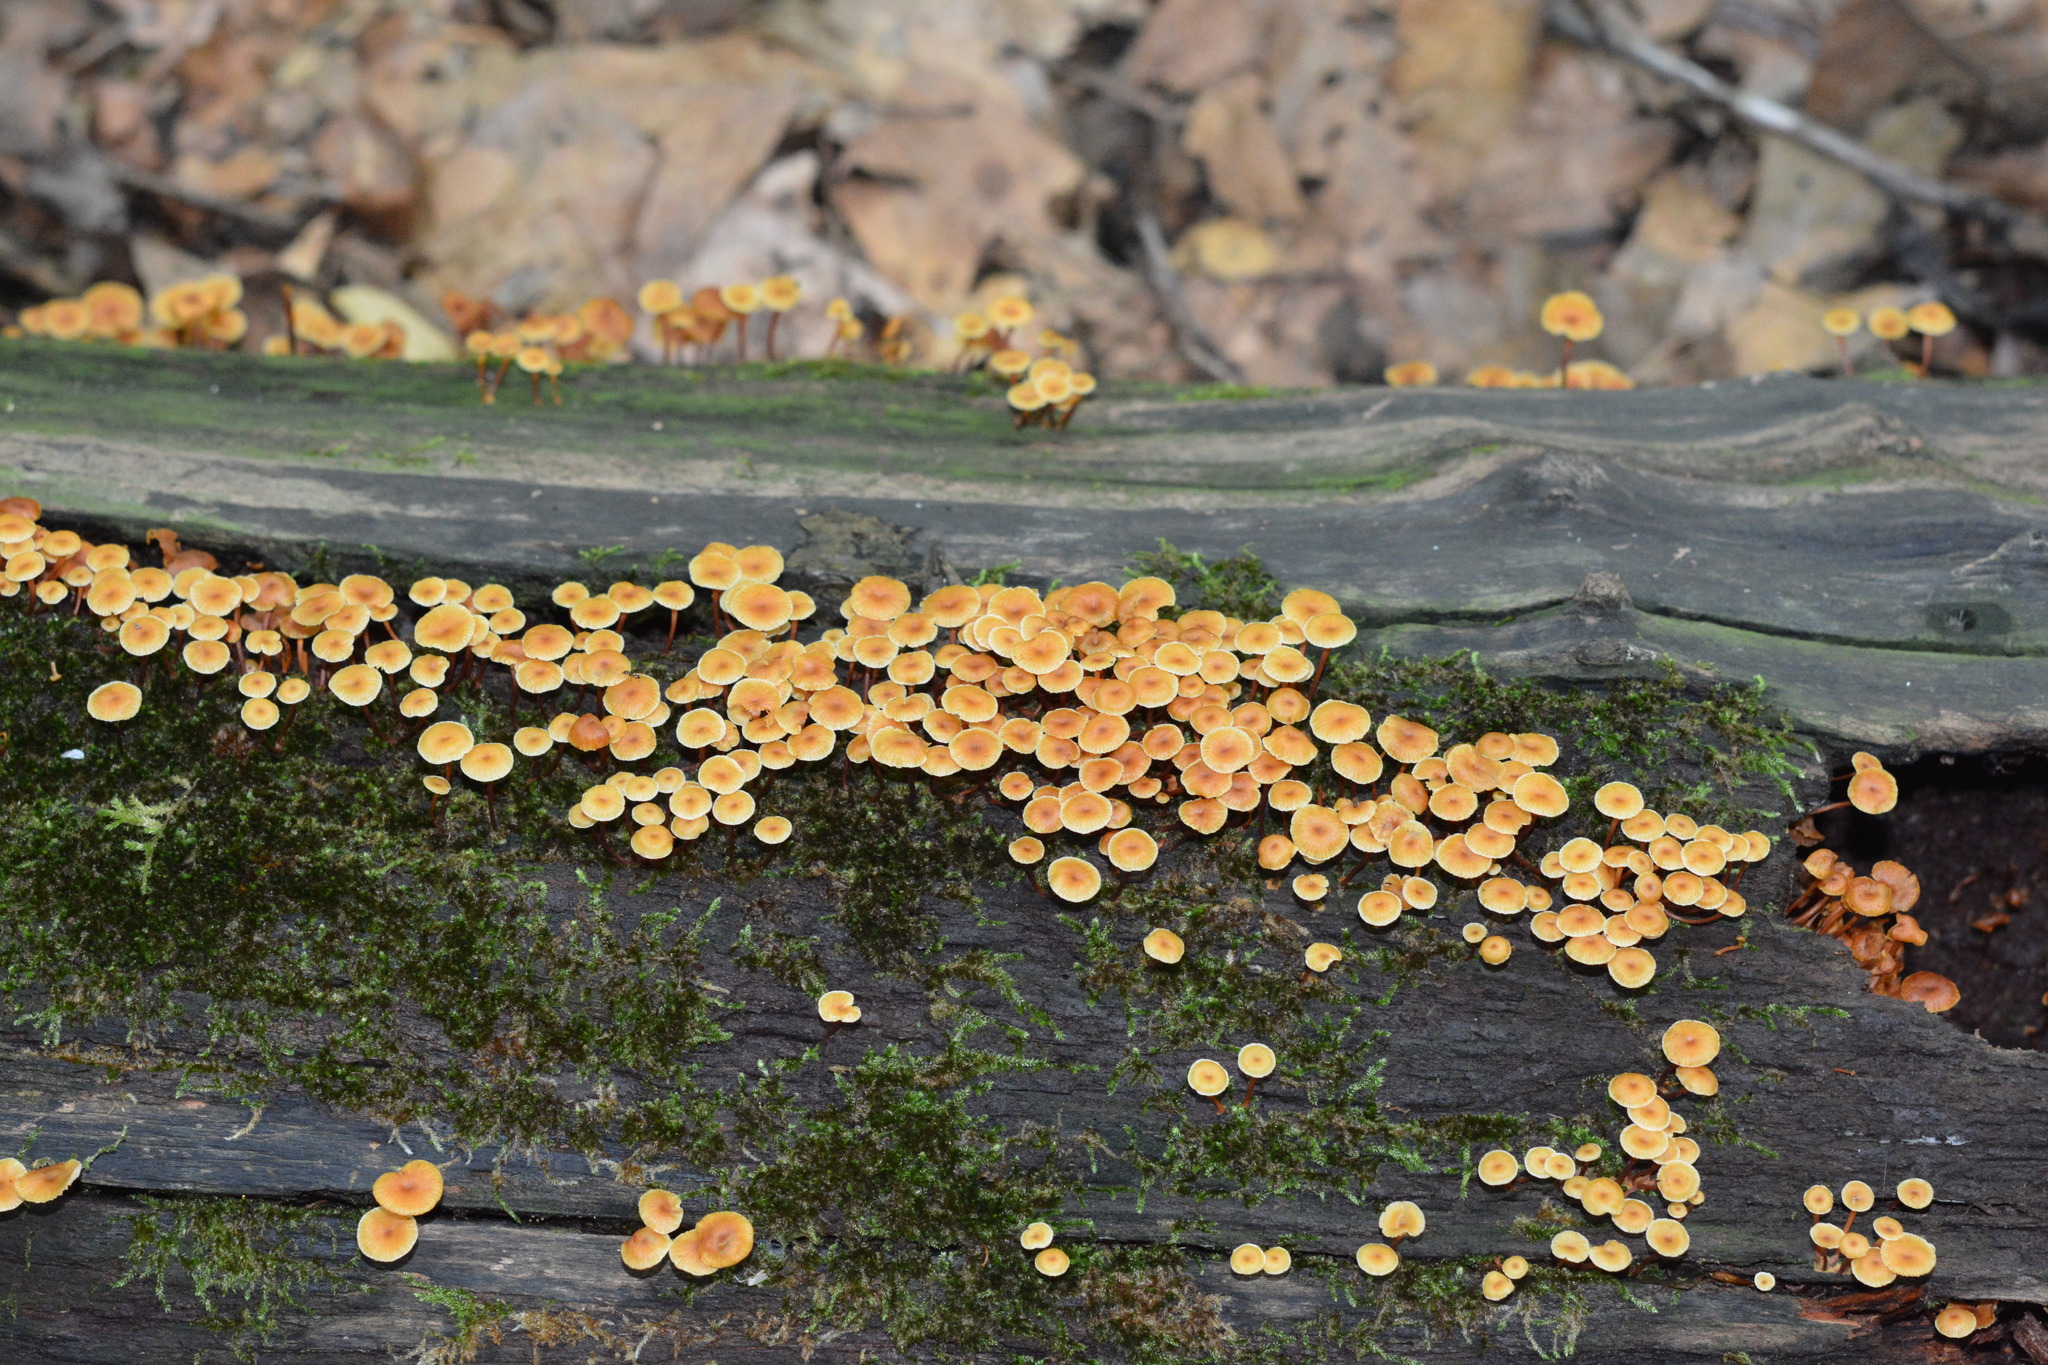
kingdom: Fungi
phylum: Basidiomycota
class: Agaricomycetes
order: Agaricales
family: Mycenaceae
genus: Xeromphalina
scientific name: Xeromphalina campanella
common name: Pinewood gingertail
